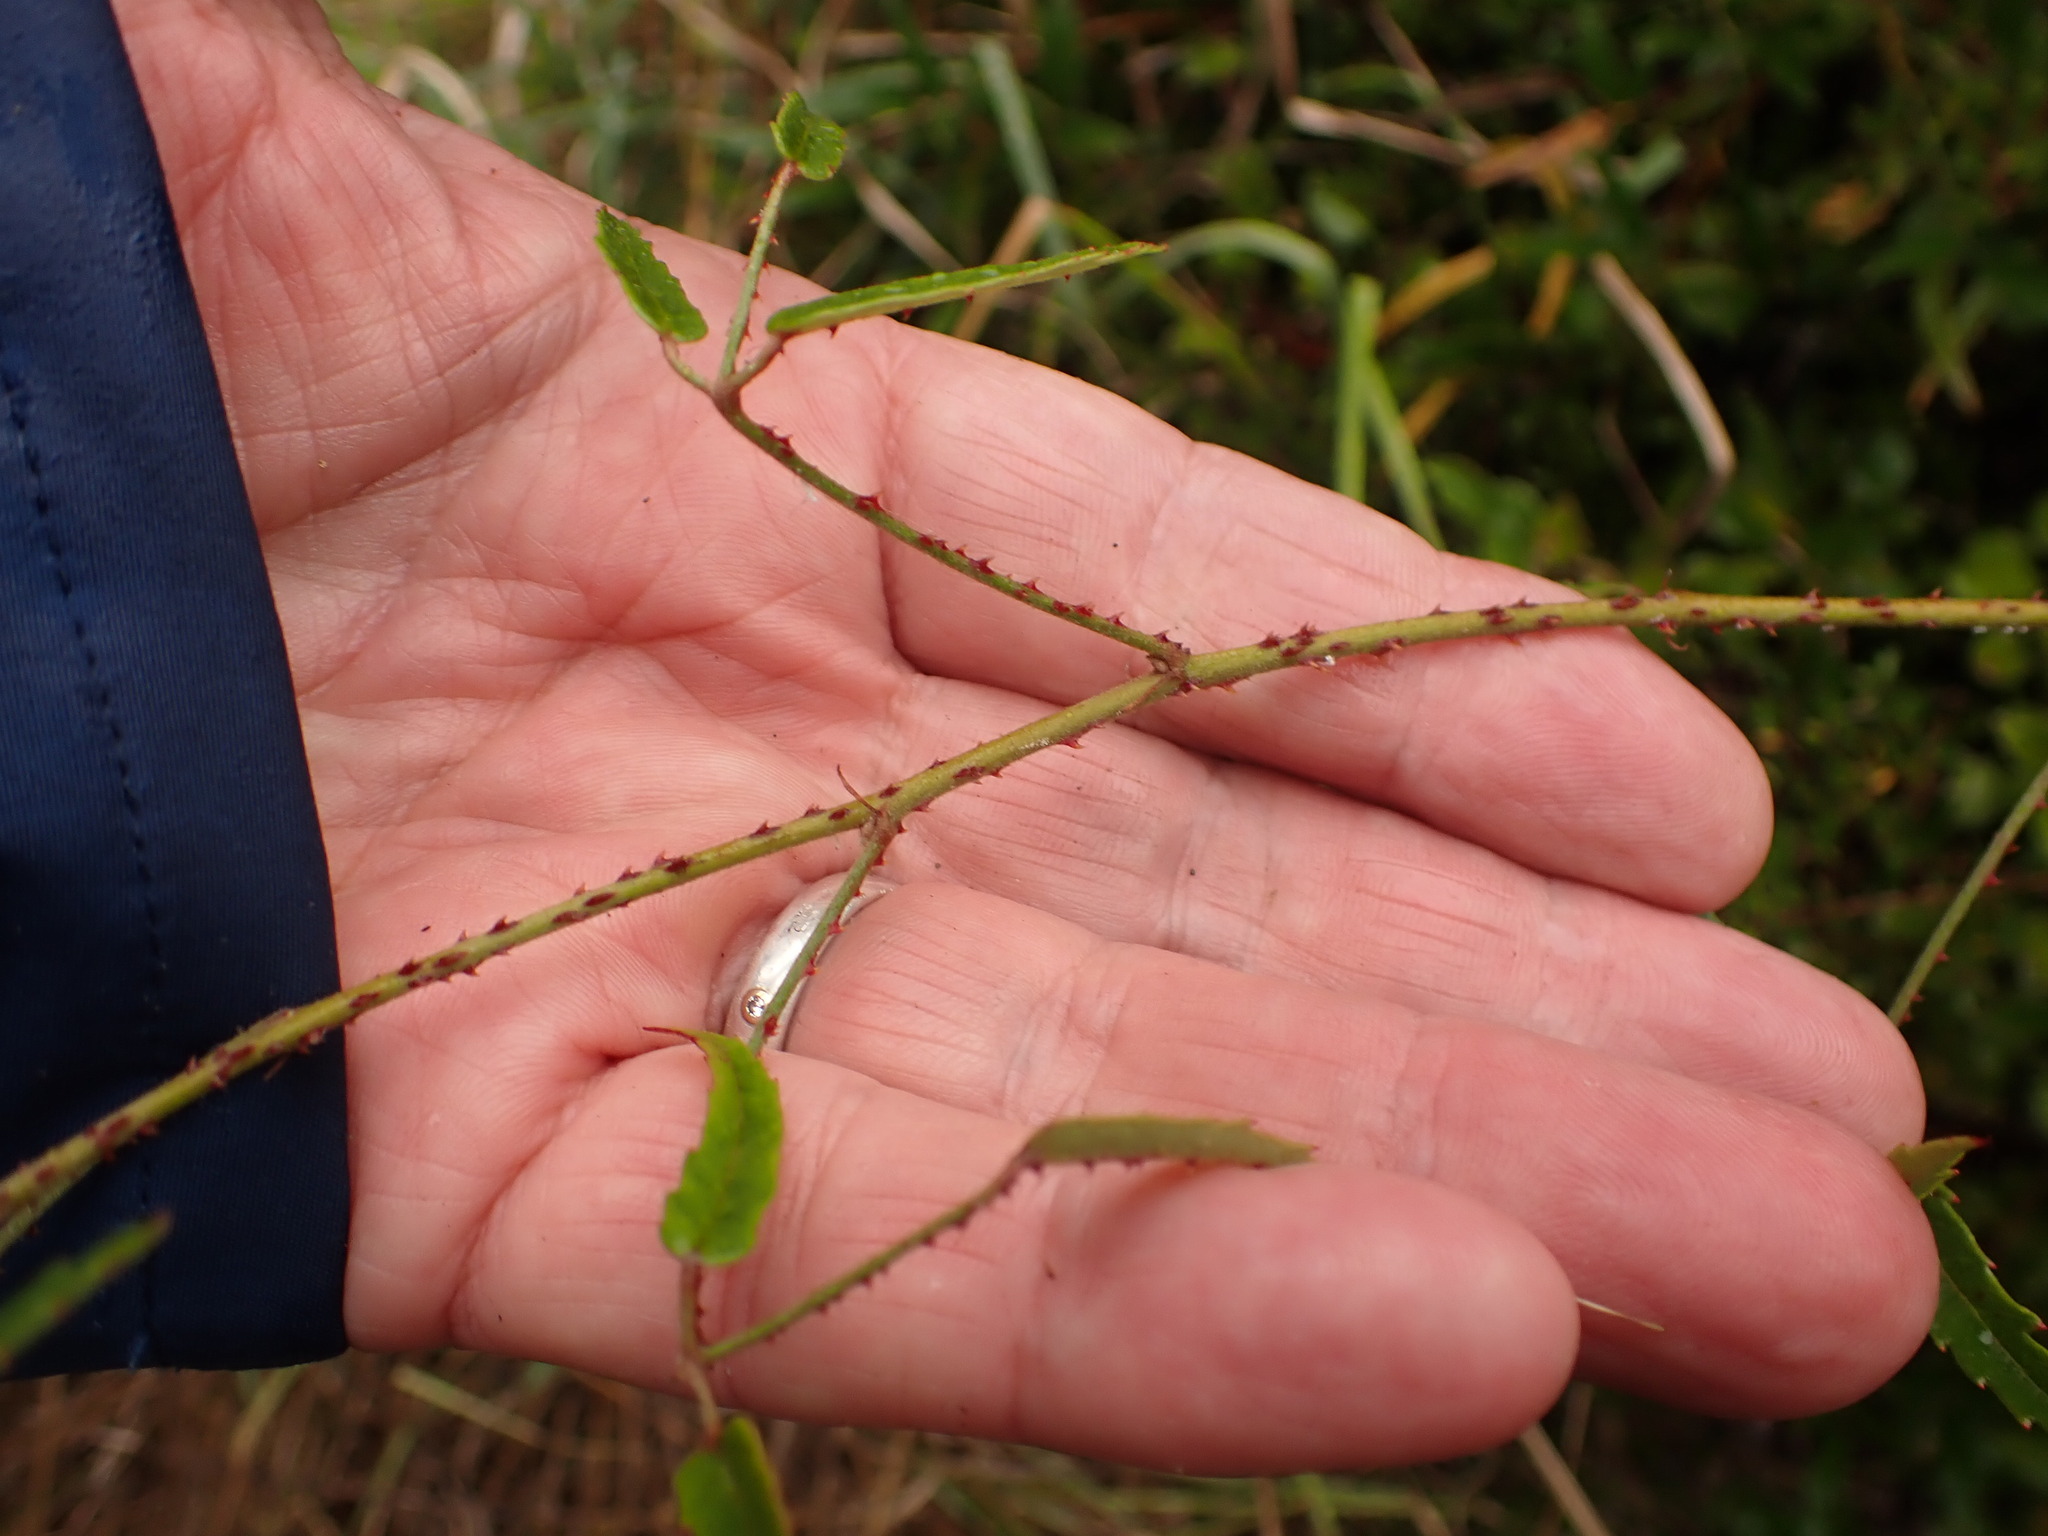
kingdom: Plantae
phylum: Tracheophyta
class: Magnoliopsida
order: Rosales
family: Rosaceae
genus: Rubus
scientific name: Rubus schmidelioides
